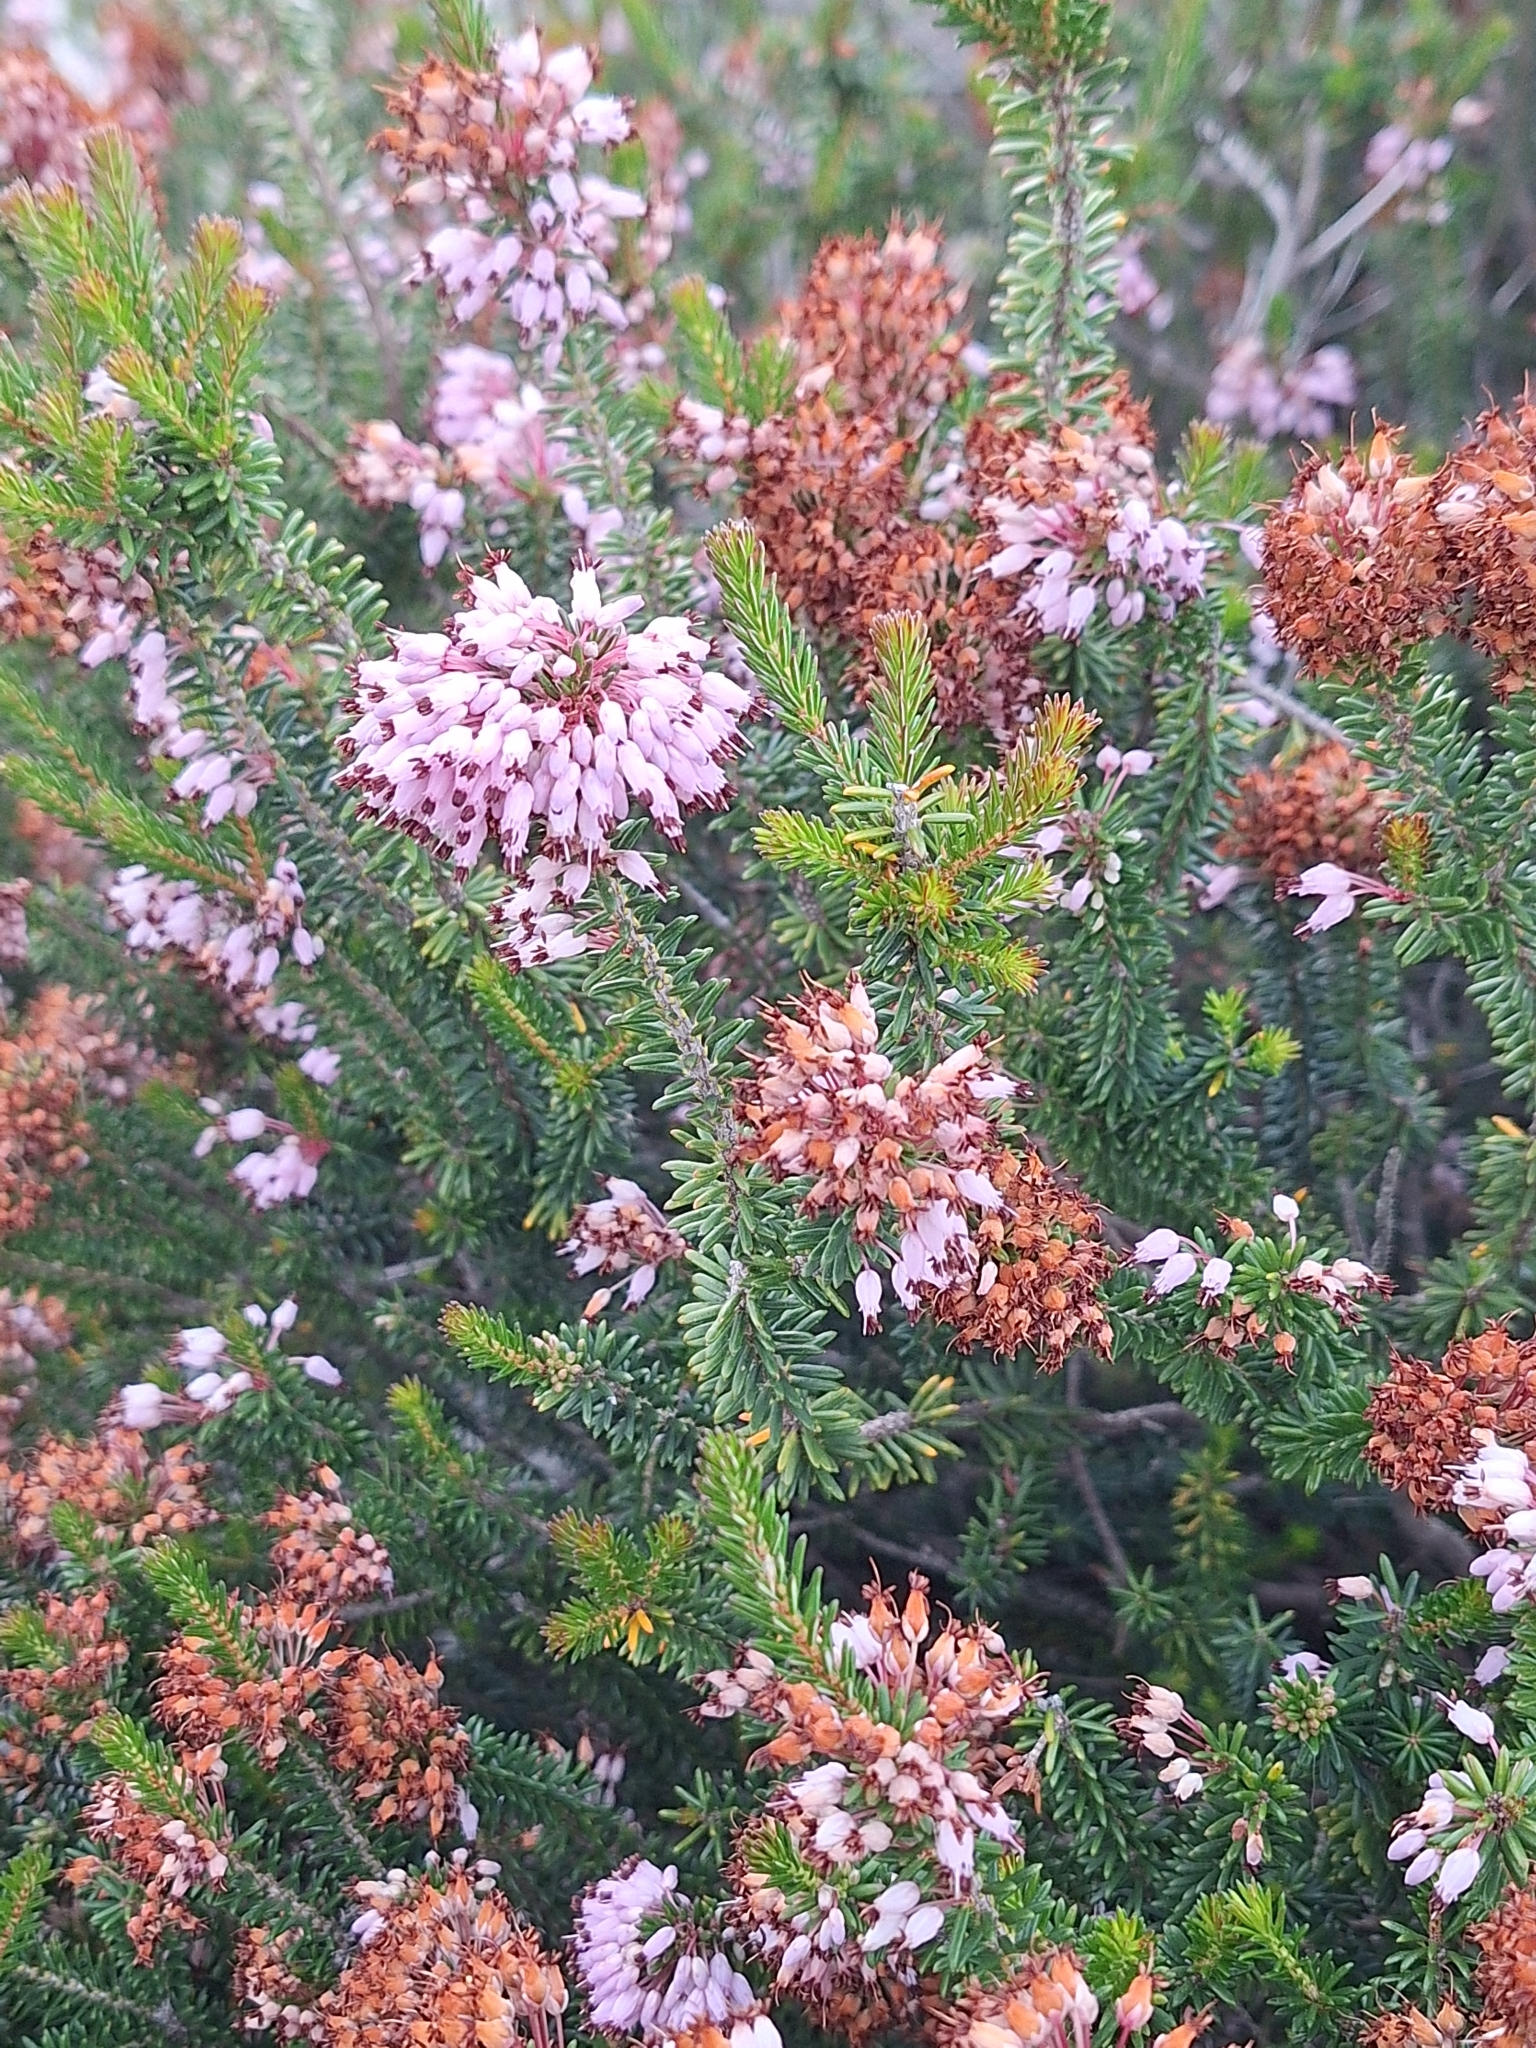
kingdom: Plantae
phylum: Tracheophyta
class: Magnoliopsida
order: Ericales
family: Ericaceae
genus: Erica
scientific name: Erica multiflora
